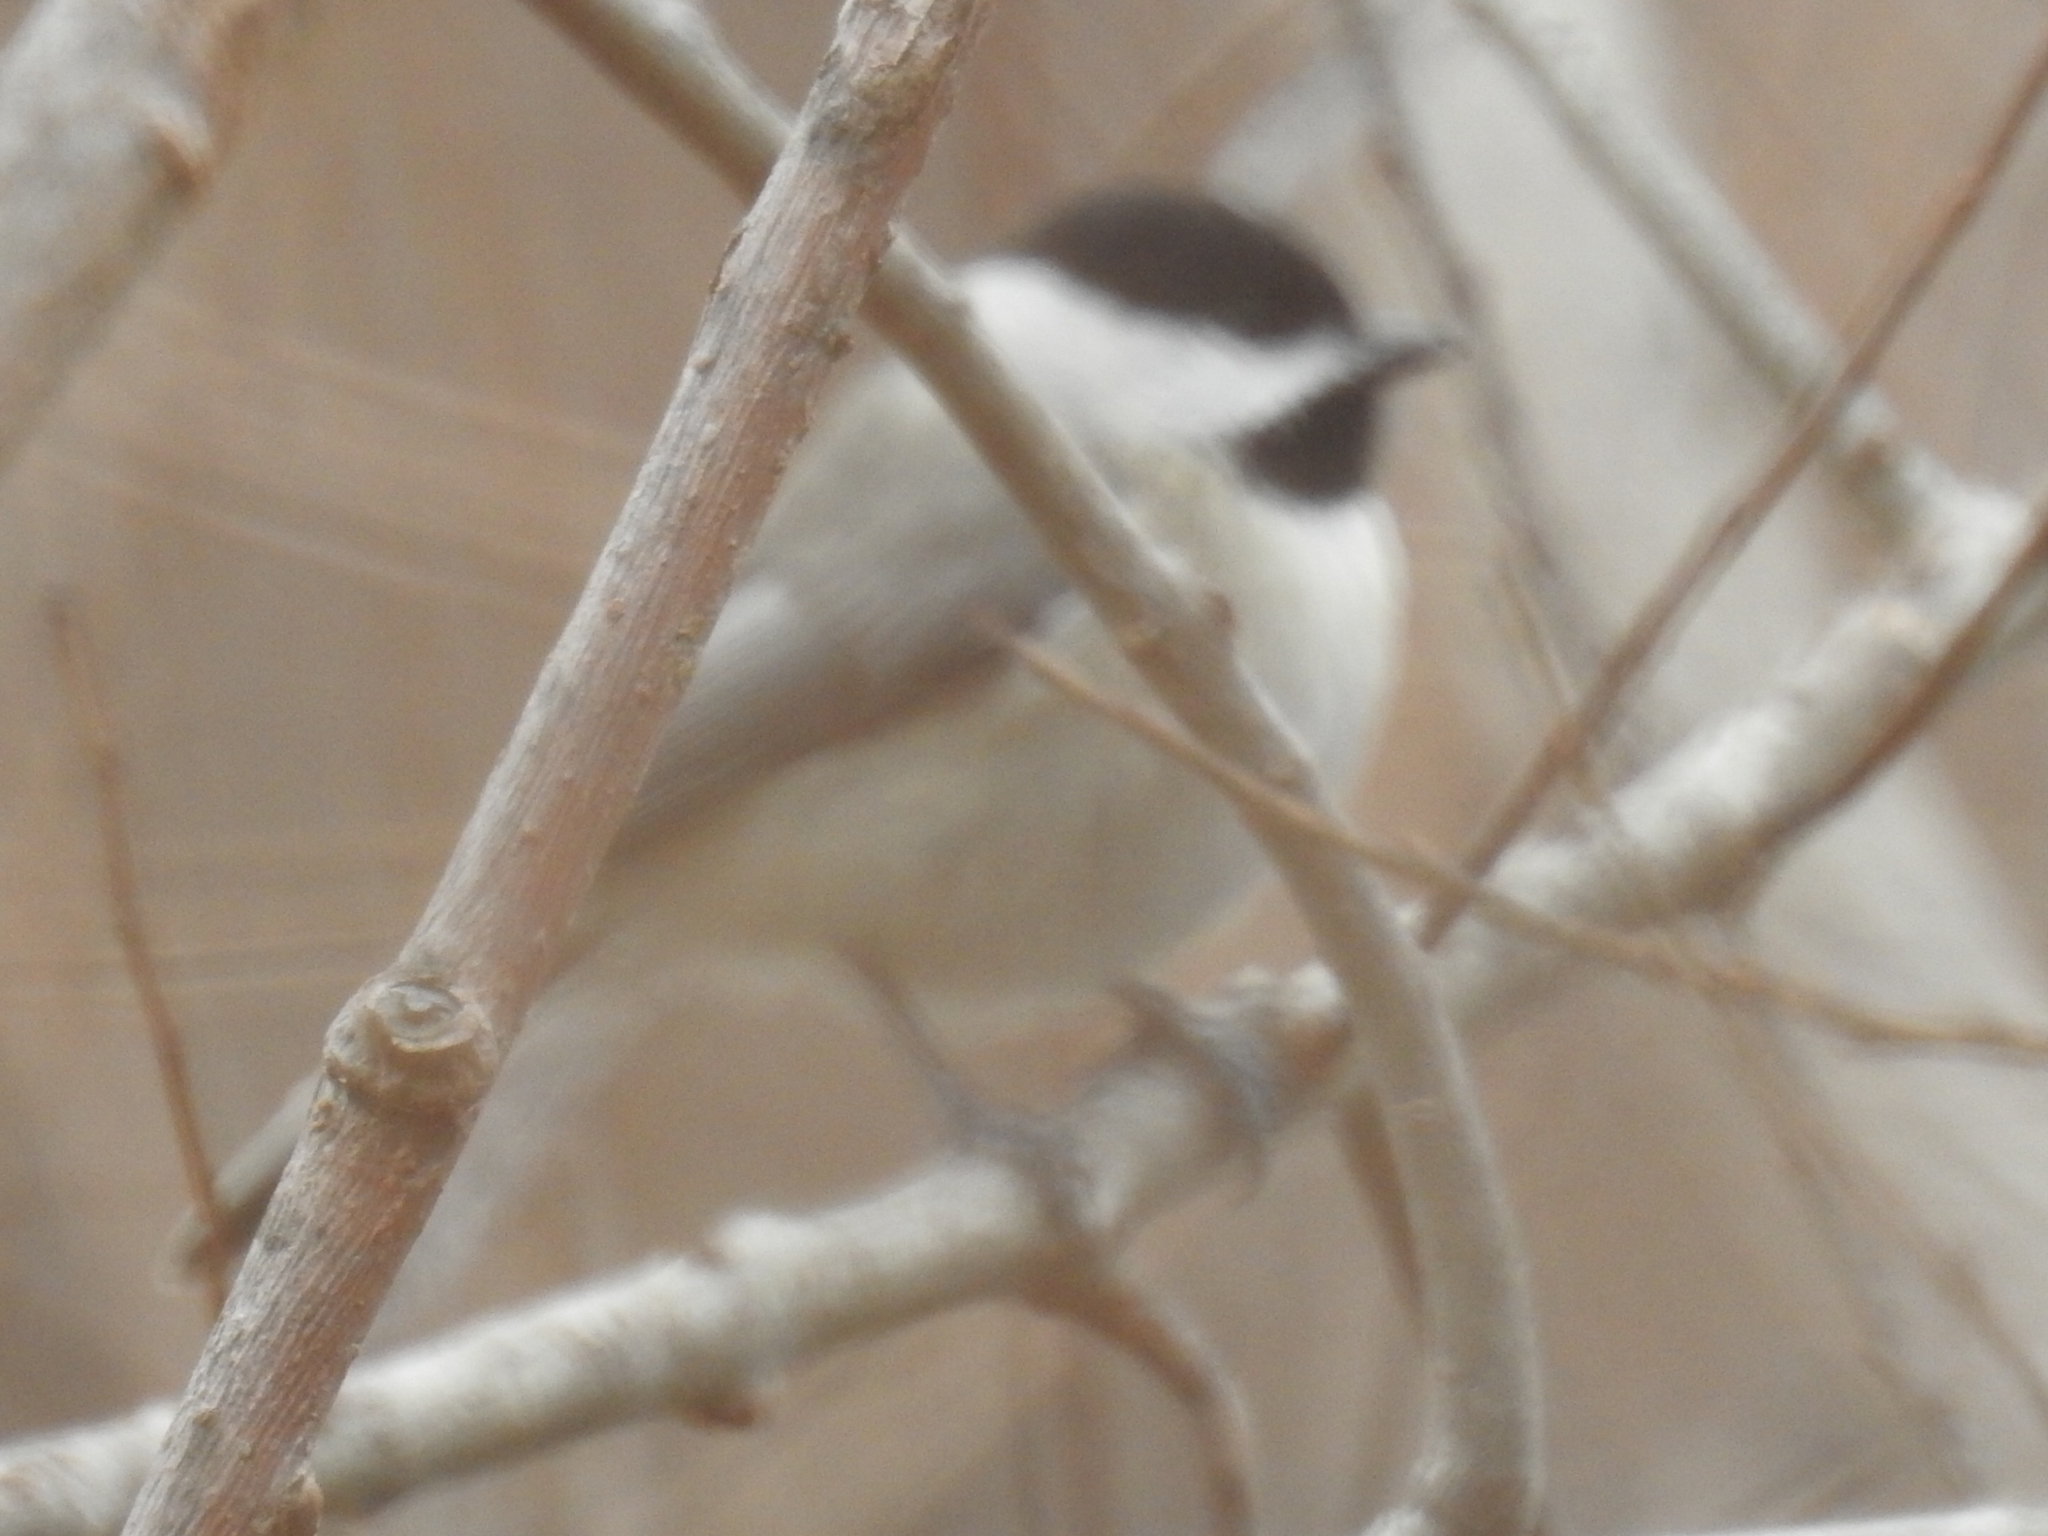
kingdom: Animalia
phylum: Chordata
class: Aves
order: Passeriformes
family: Paridae
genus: Poecile
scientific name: Poecile carolinensis
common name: Carolina chickadee
